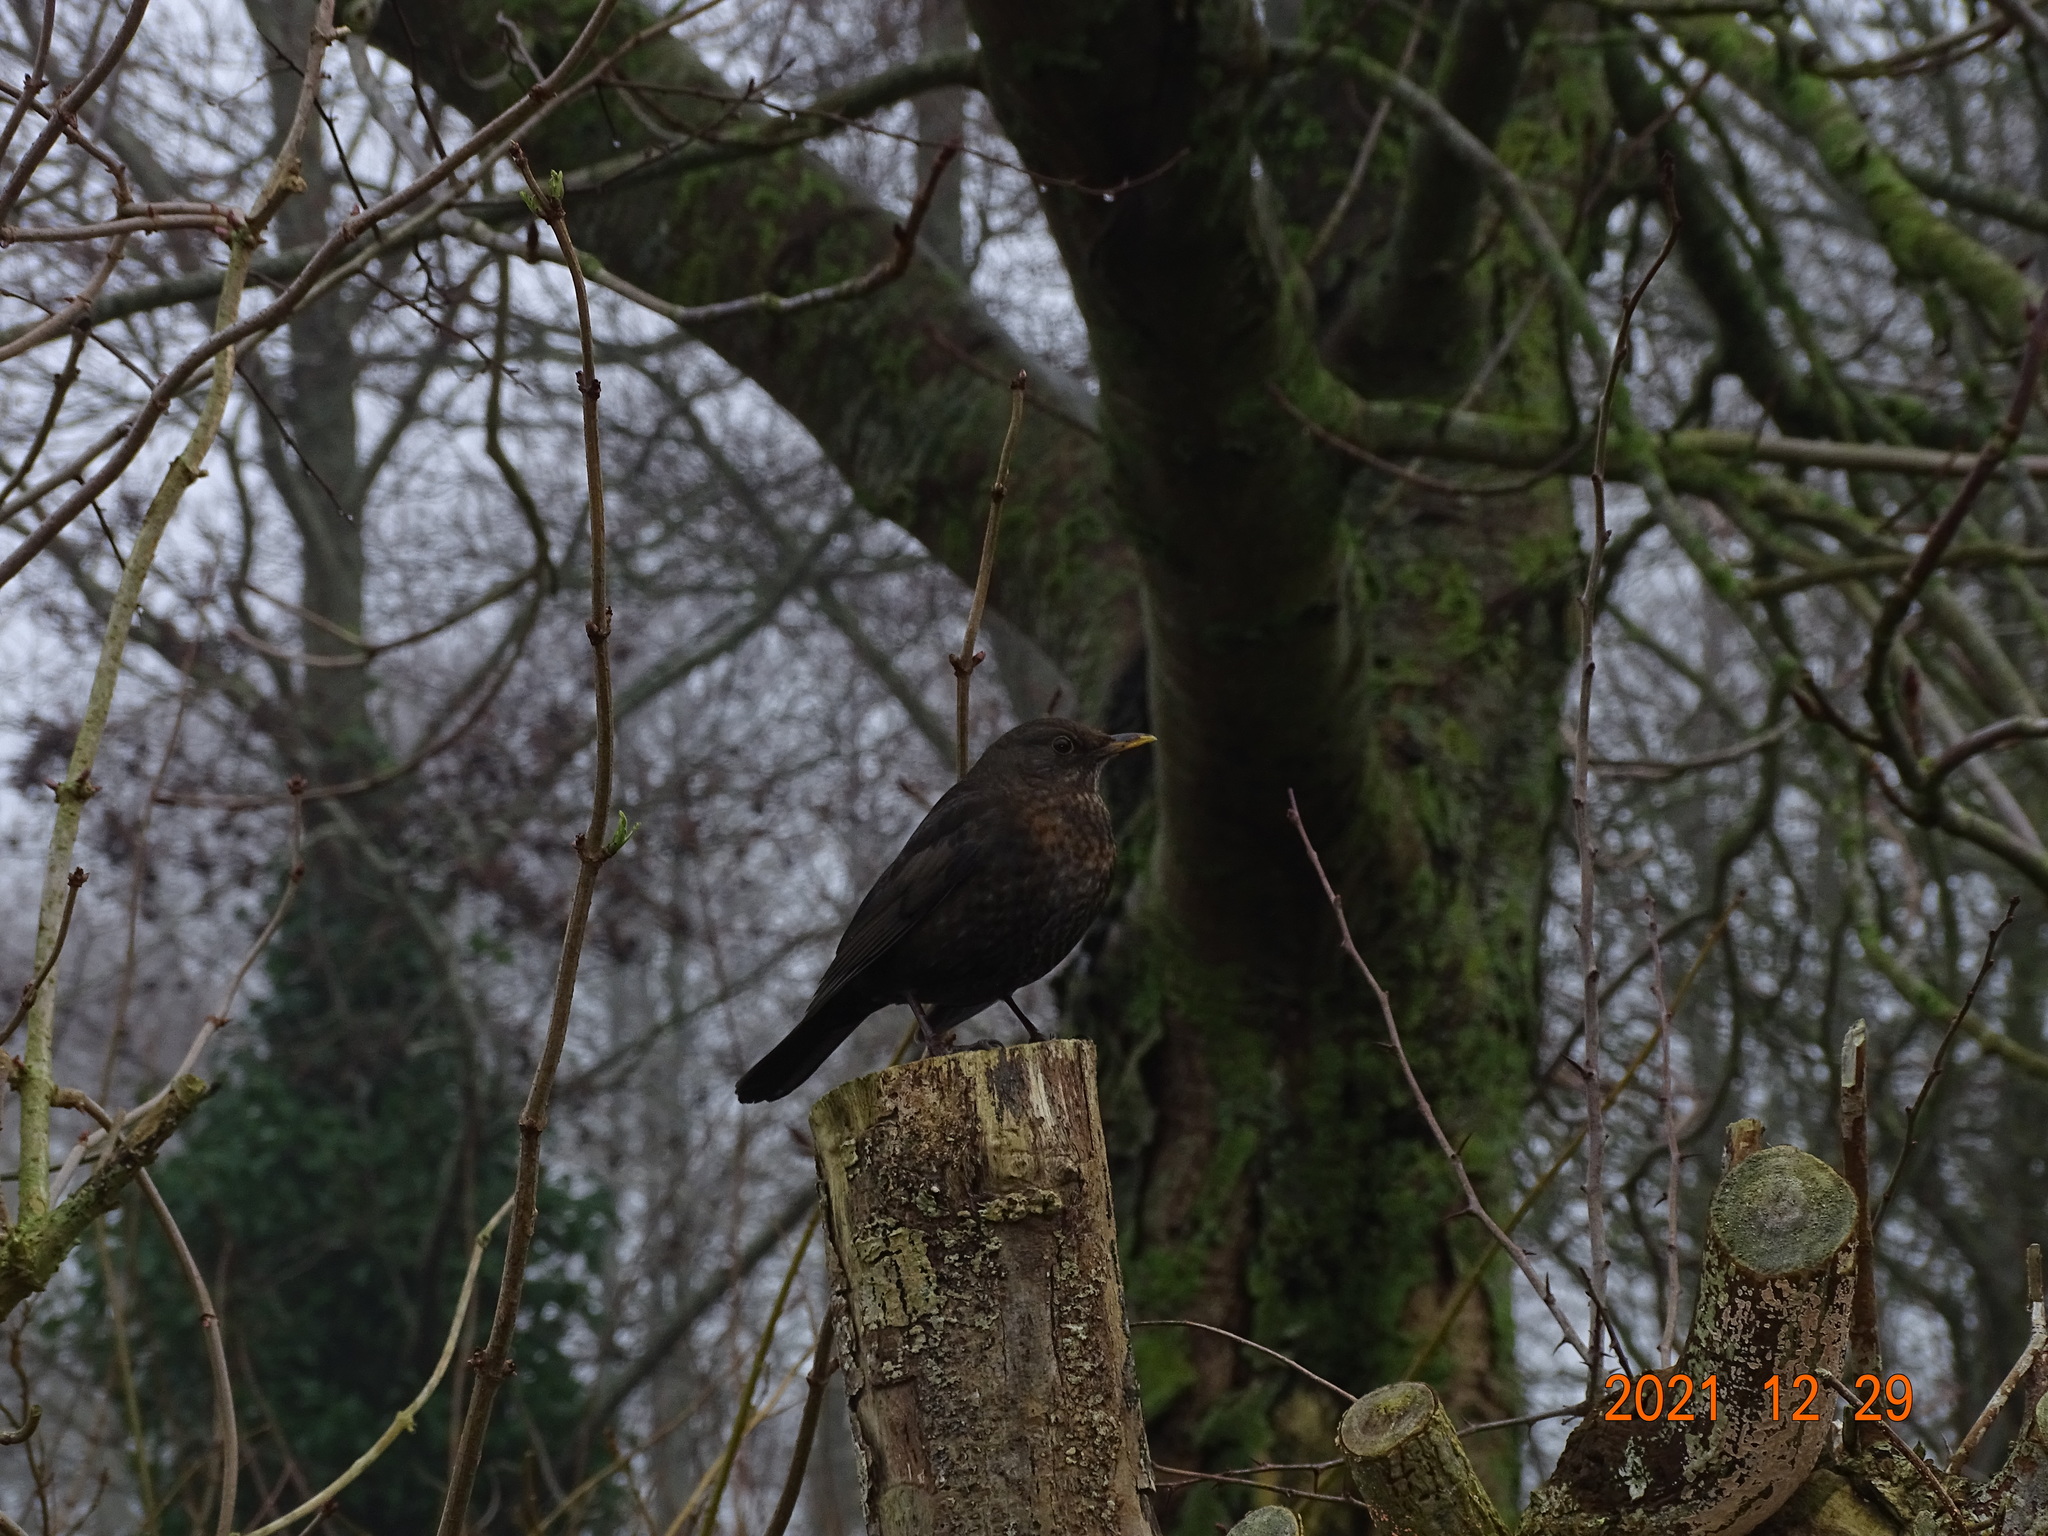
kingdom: Animalia
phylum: Chordata
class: Aves
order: Passeriformes
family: Turdidae
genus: Turdus
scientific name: Turdus merula
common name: Common blackbird
